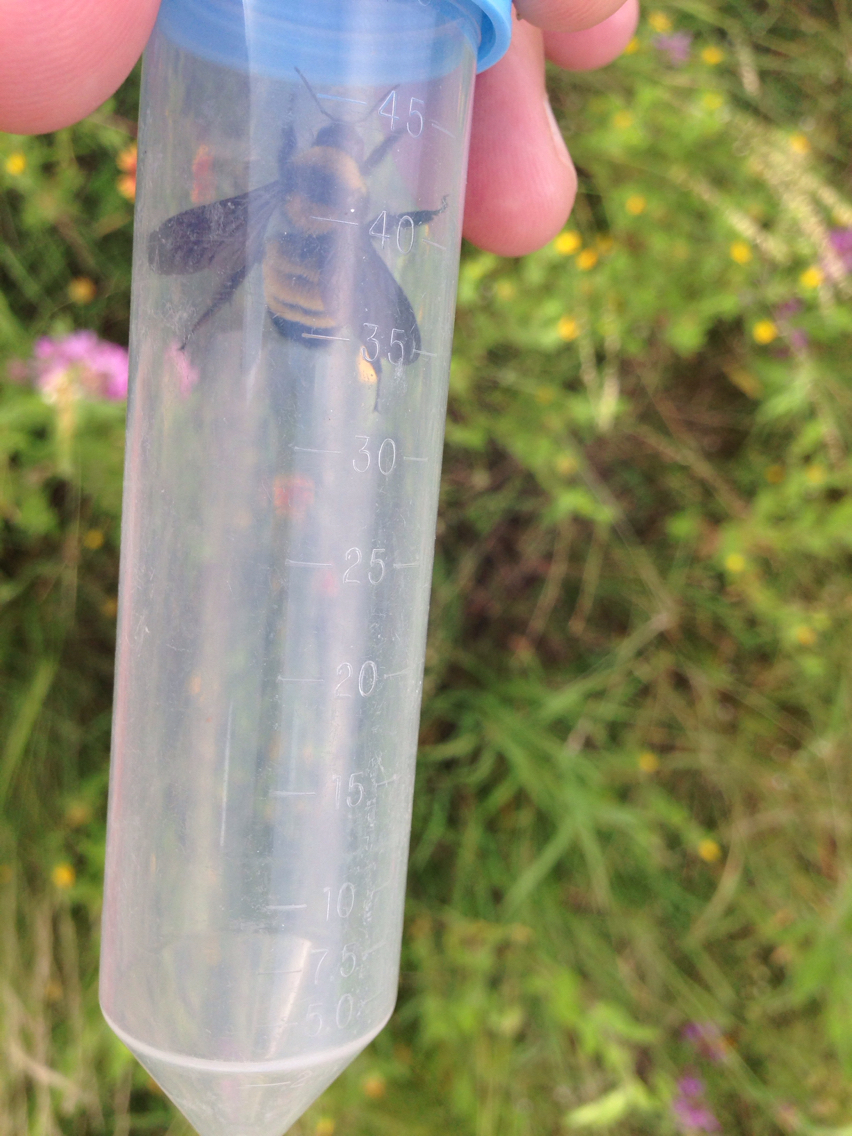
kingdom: Animalia
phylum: Arthropoda
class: Insecta
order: Hymenoptera
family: Apidae
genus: Bombus
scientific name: Bombus sonorus
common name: Sonoran bumble bee
